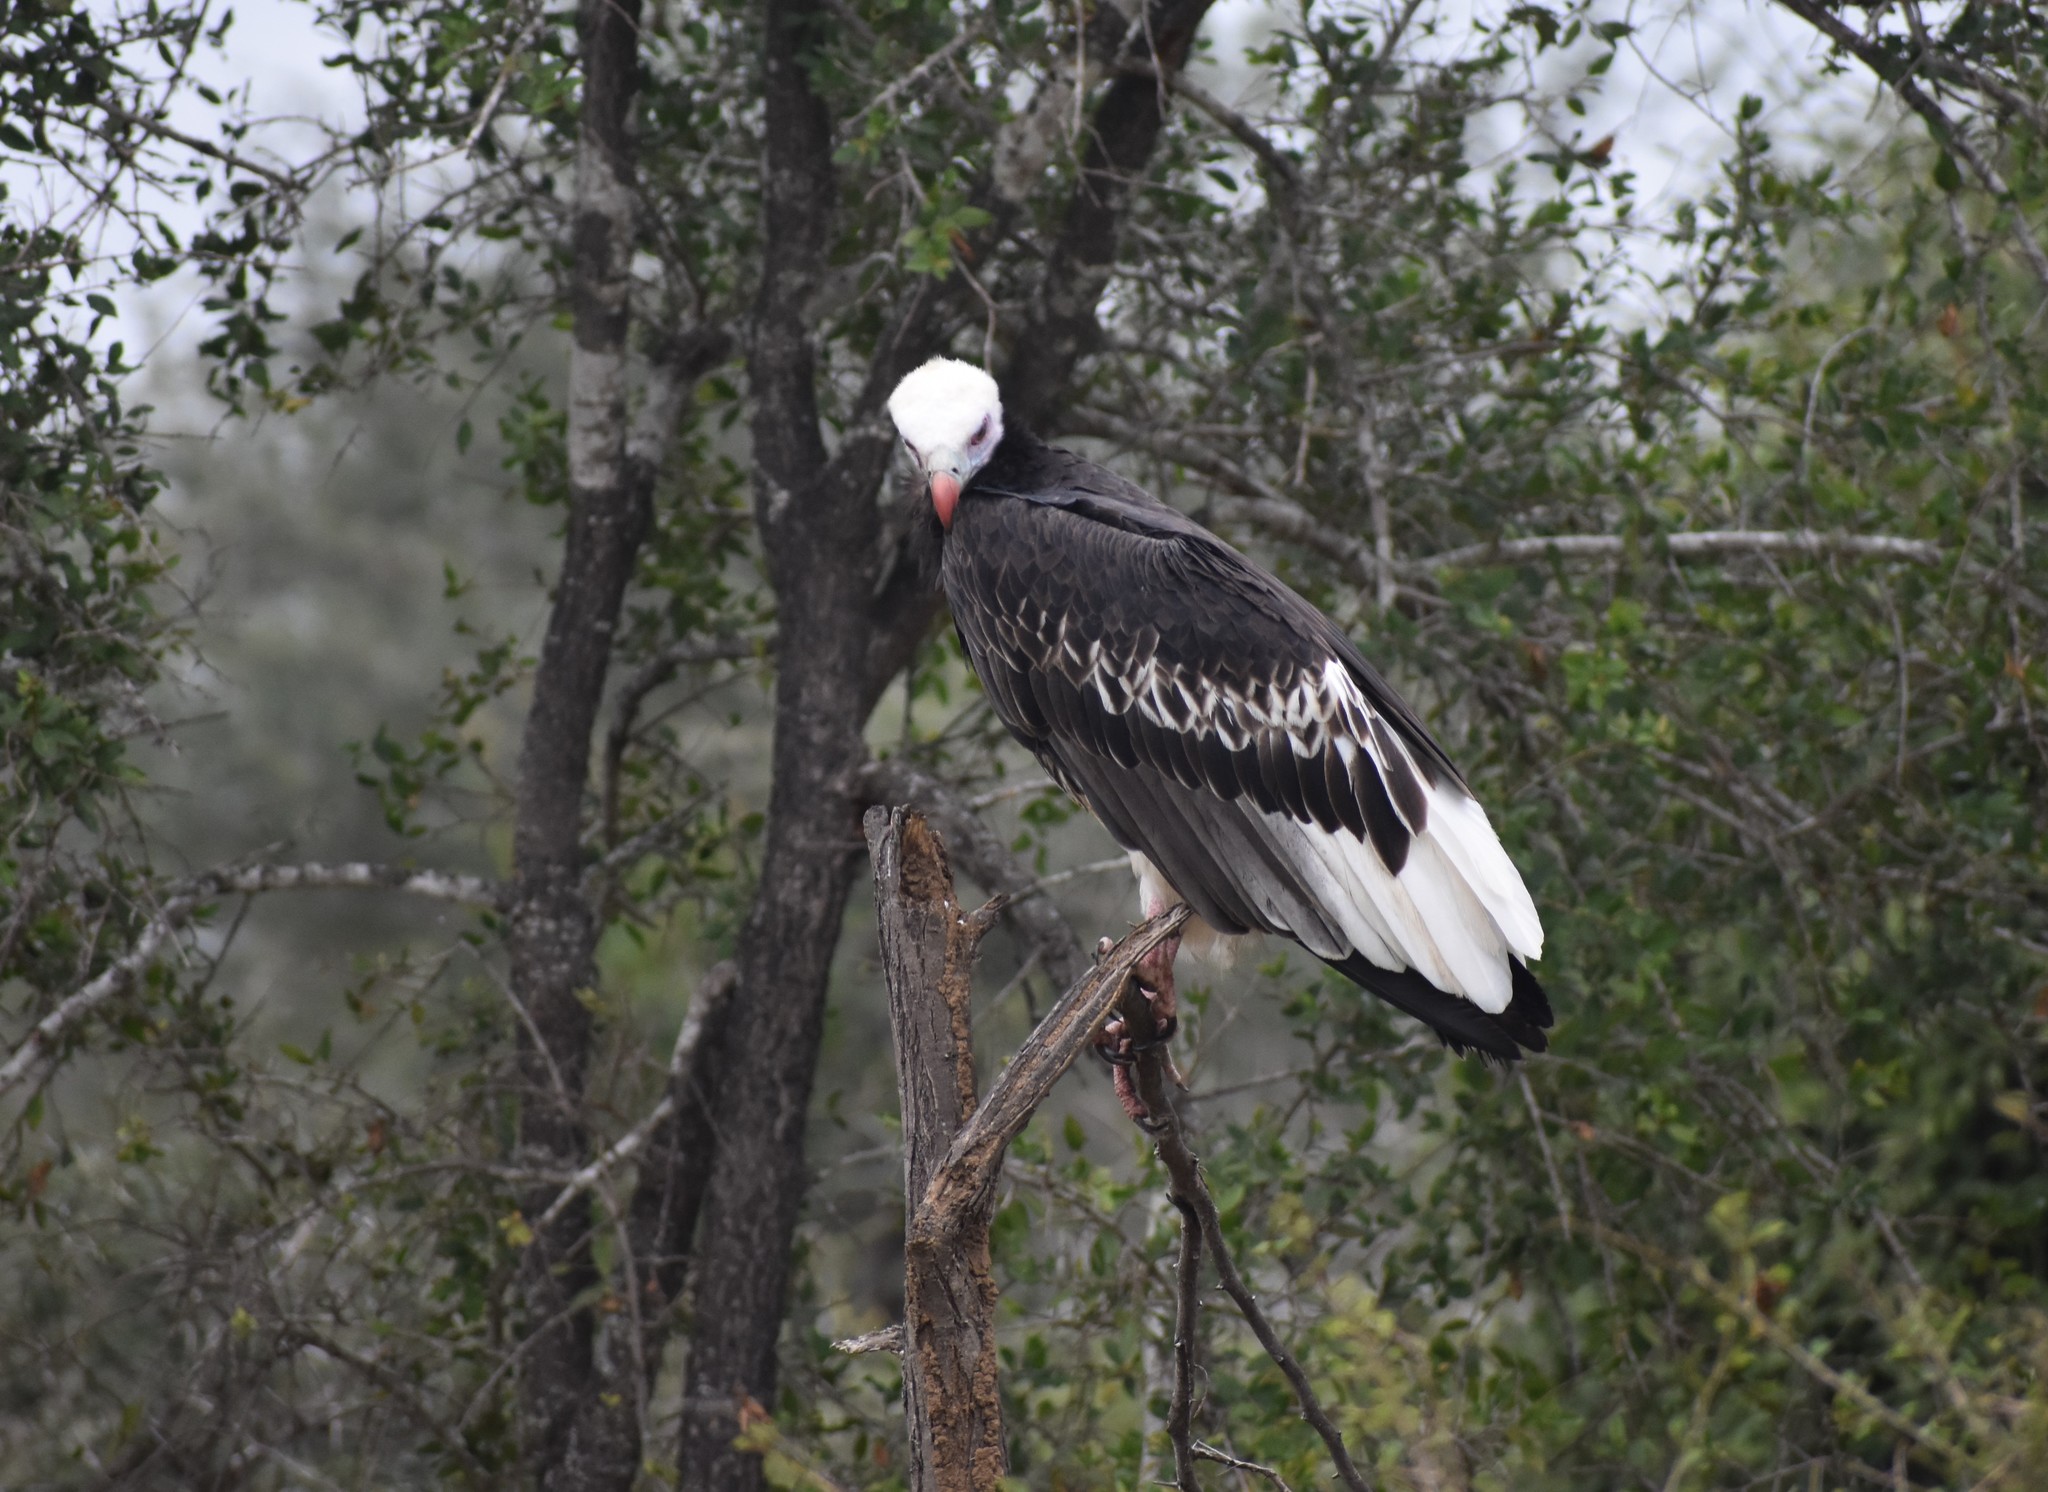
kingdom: Animalia
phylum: Chordata
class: Aves
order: Accipitriformes
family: Accipitridae
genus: Trigonoceps
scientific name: Trigonoceps occipitalis
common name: White-headed vulture
